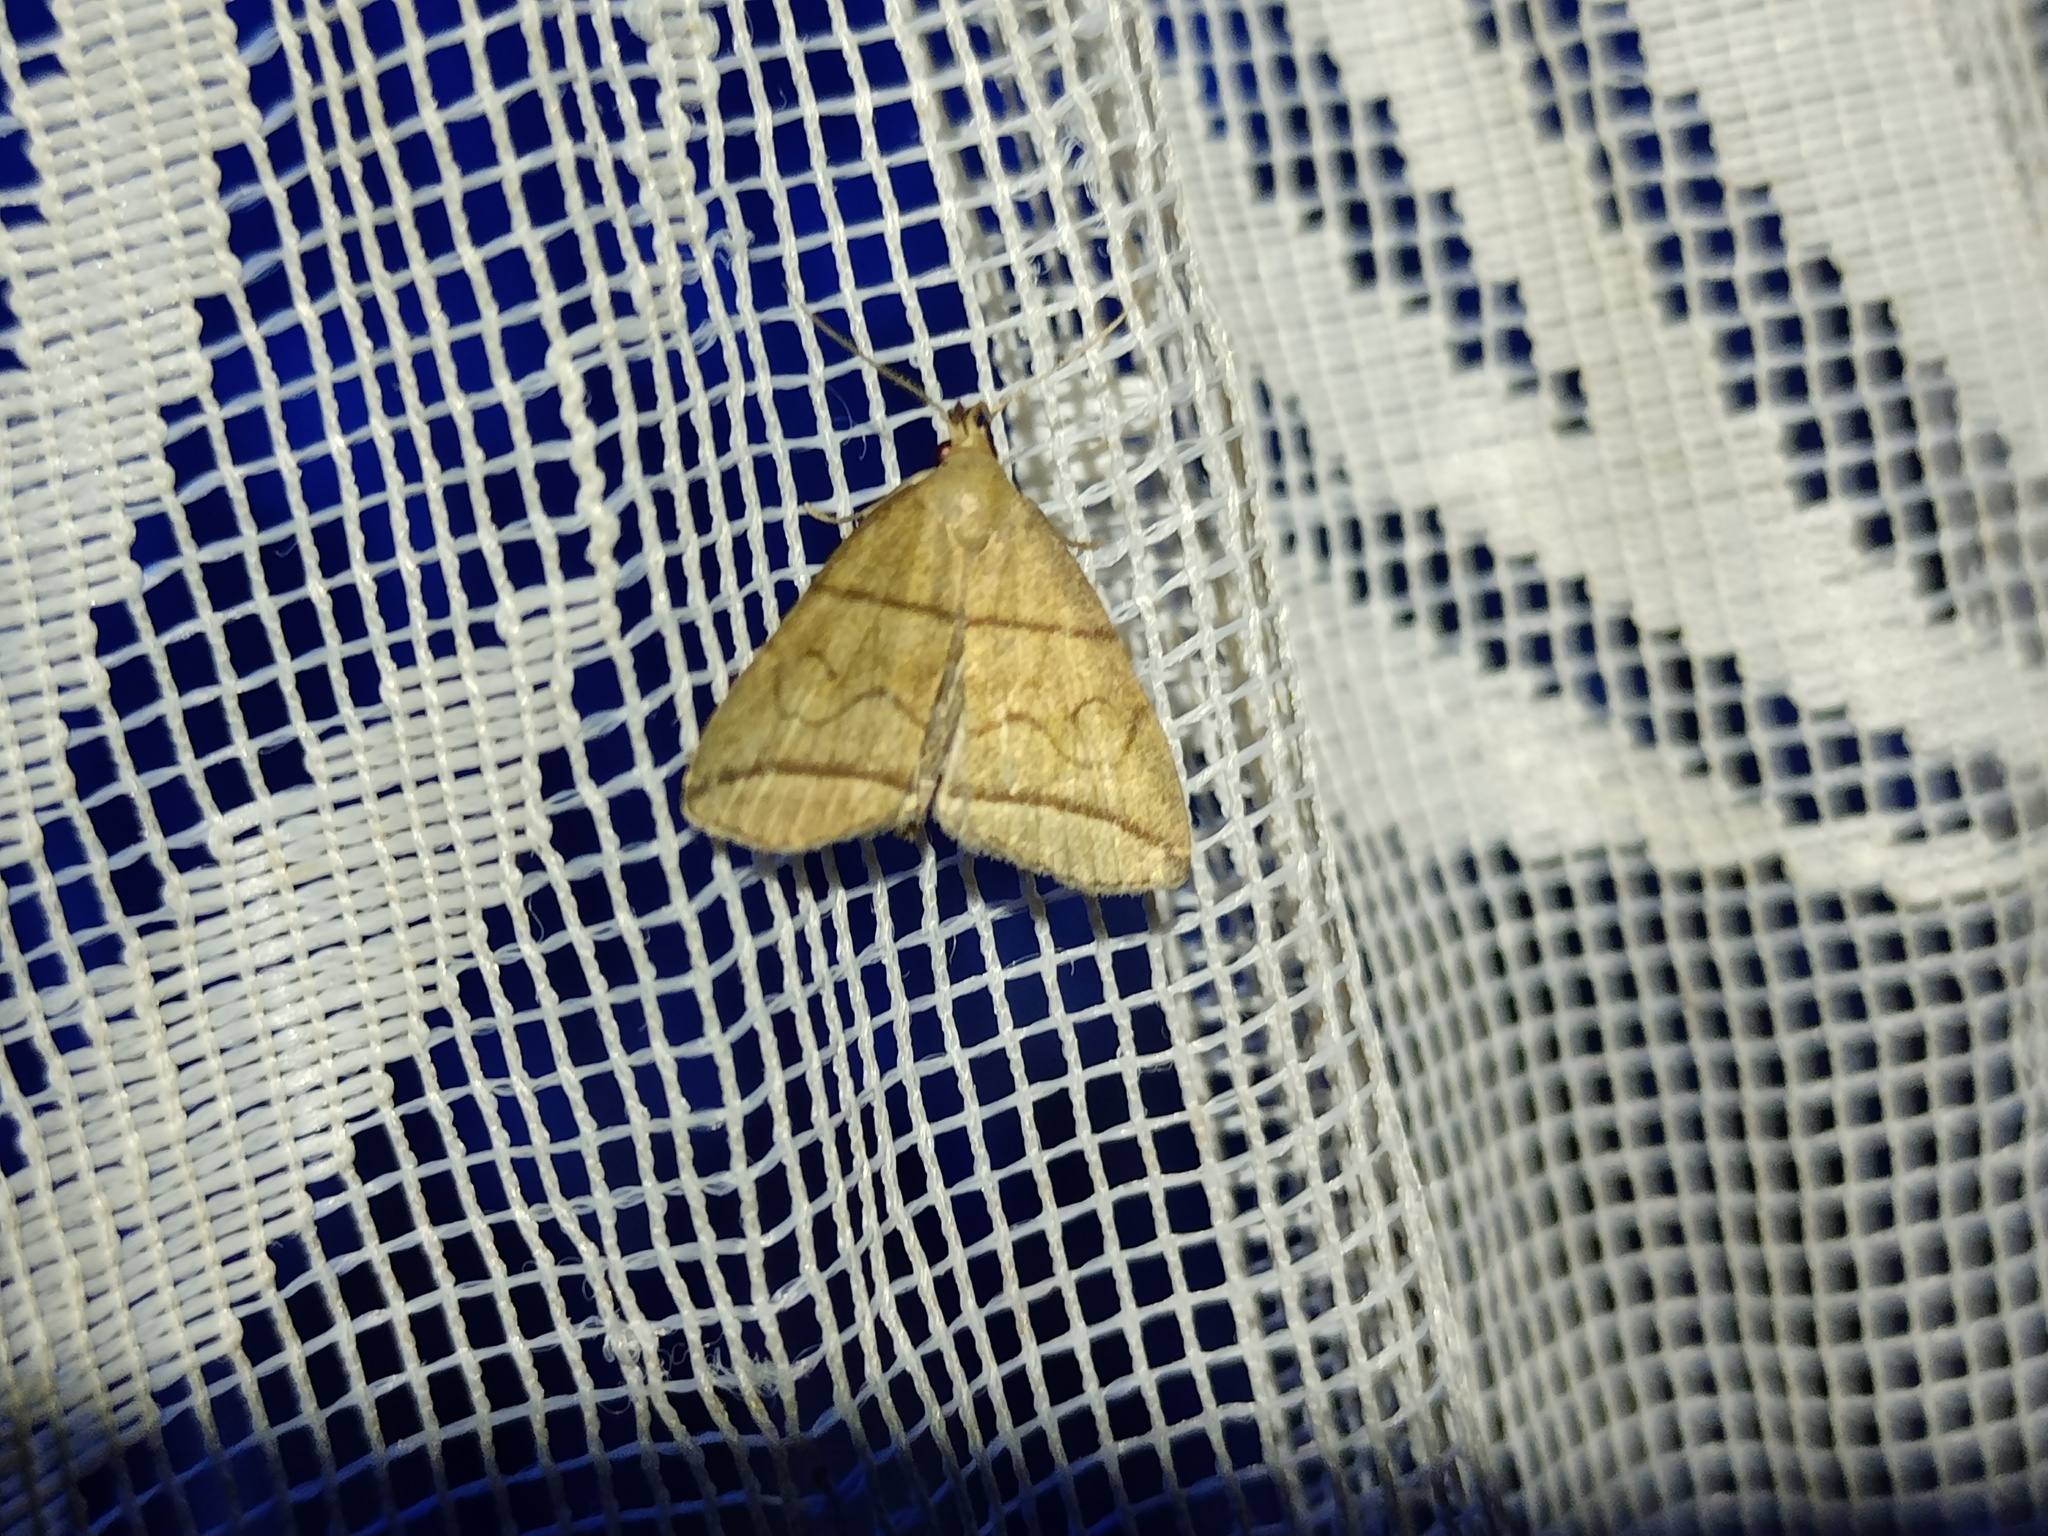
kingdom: Animalia
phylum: Arthropoda
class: Insecta
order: Lepidoptera
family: Erebidae
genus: Herminia
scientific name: Herminia grisealis
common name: Small fan-foot
